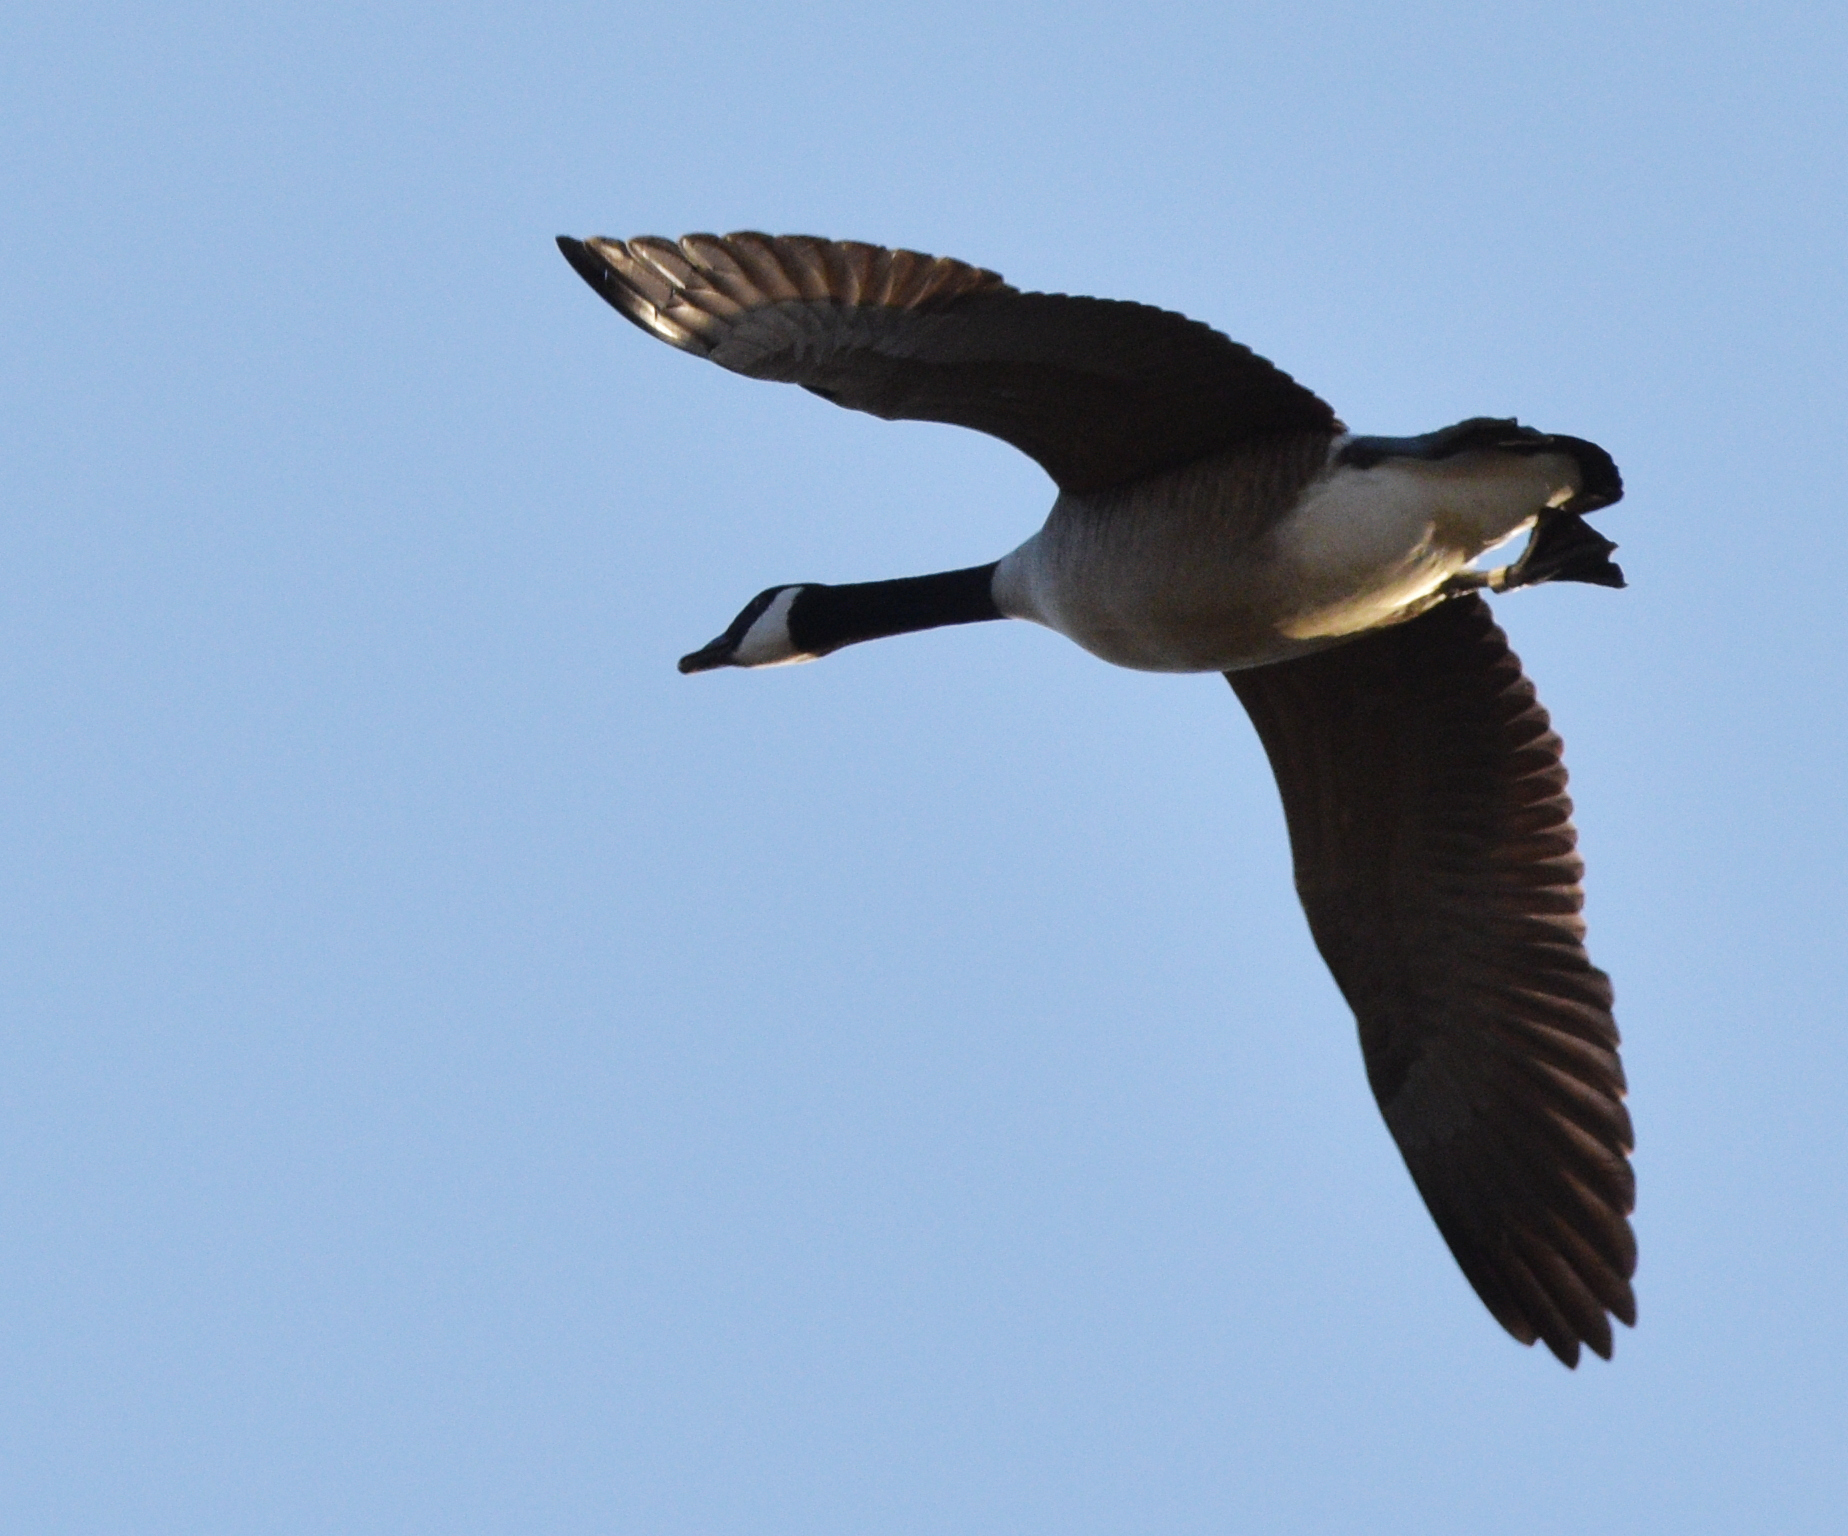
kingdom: Animalia
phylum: Chordata
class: Aves
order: Anseriformes
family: Anatidae
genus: Branta
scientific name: Branta canadensis
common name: Canada goose
